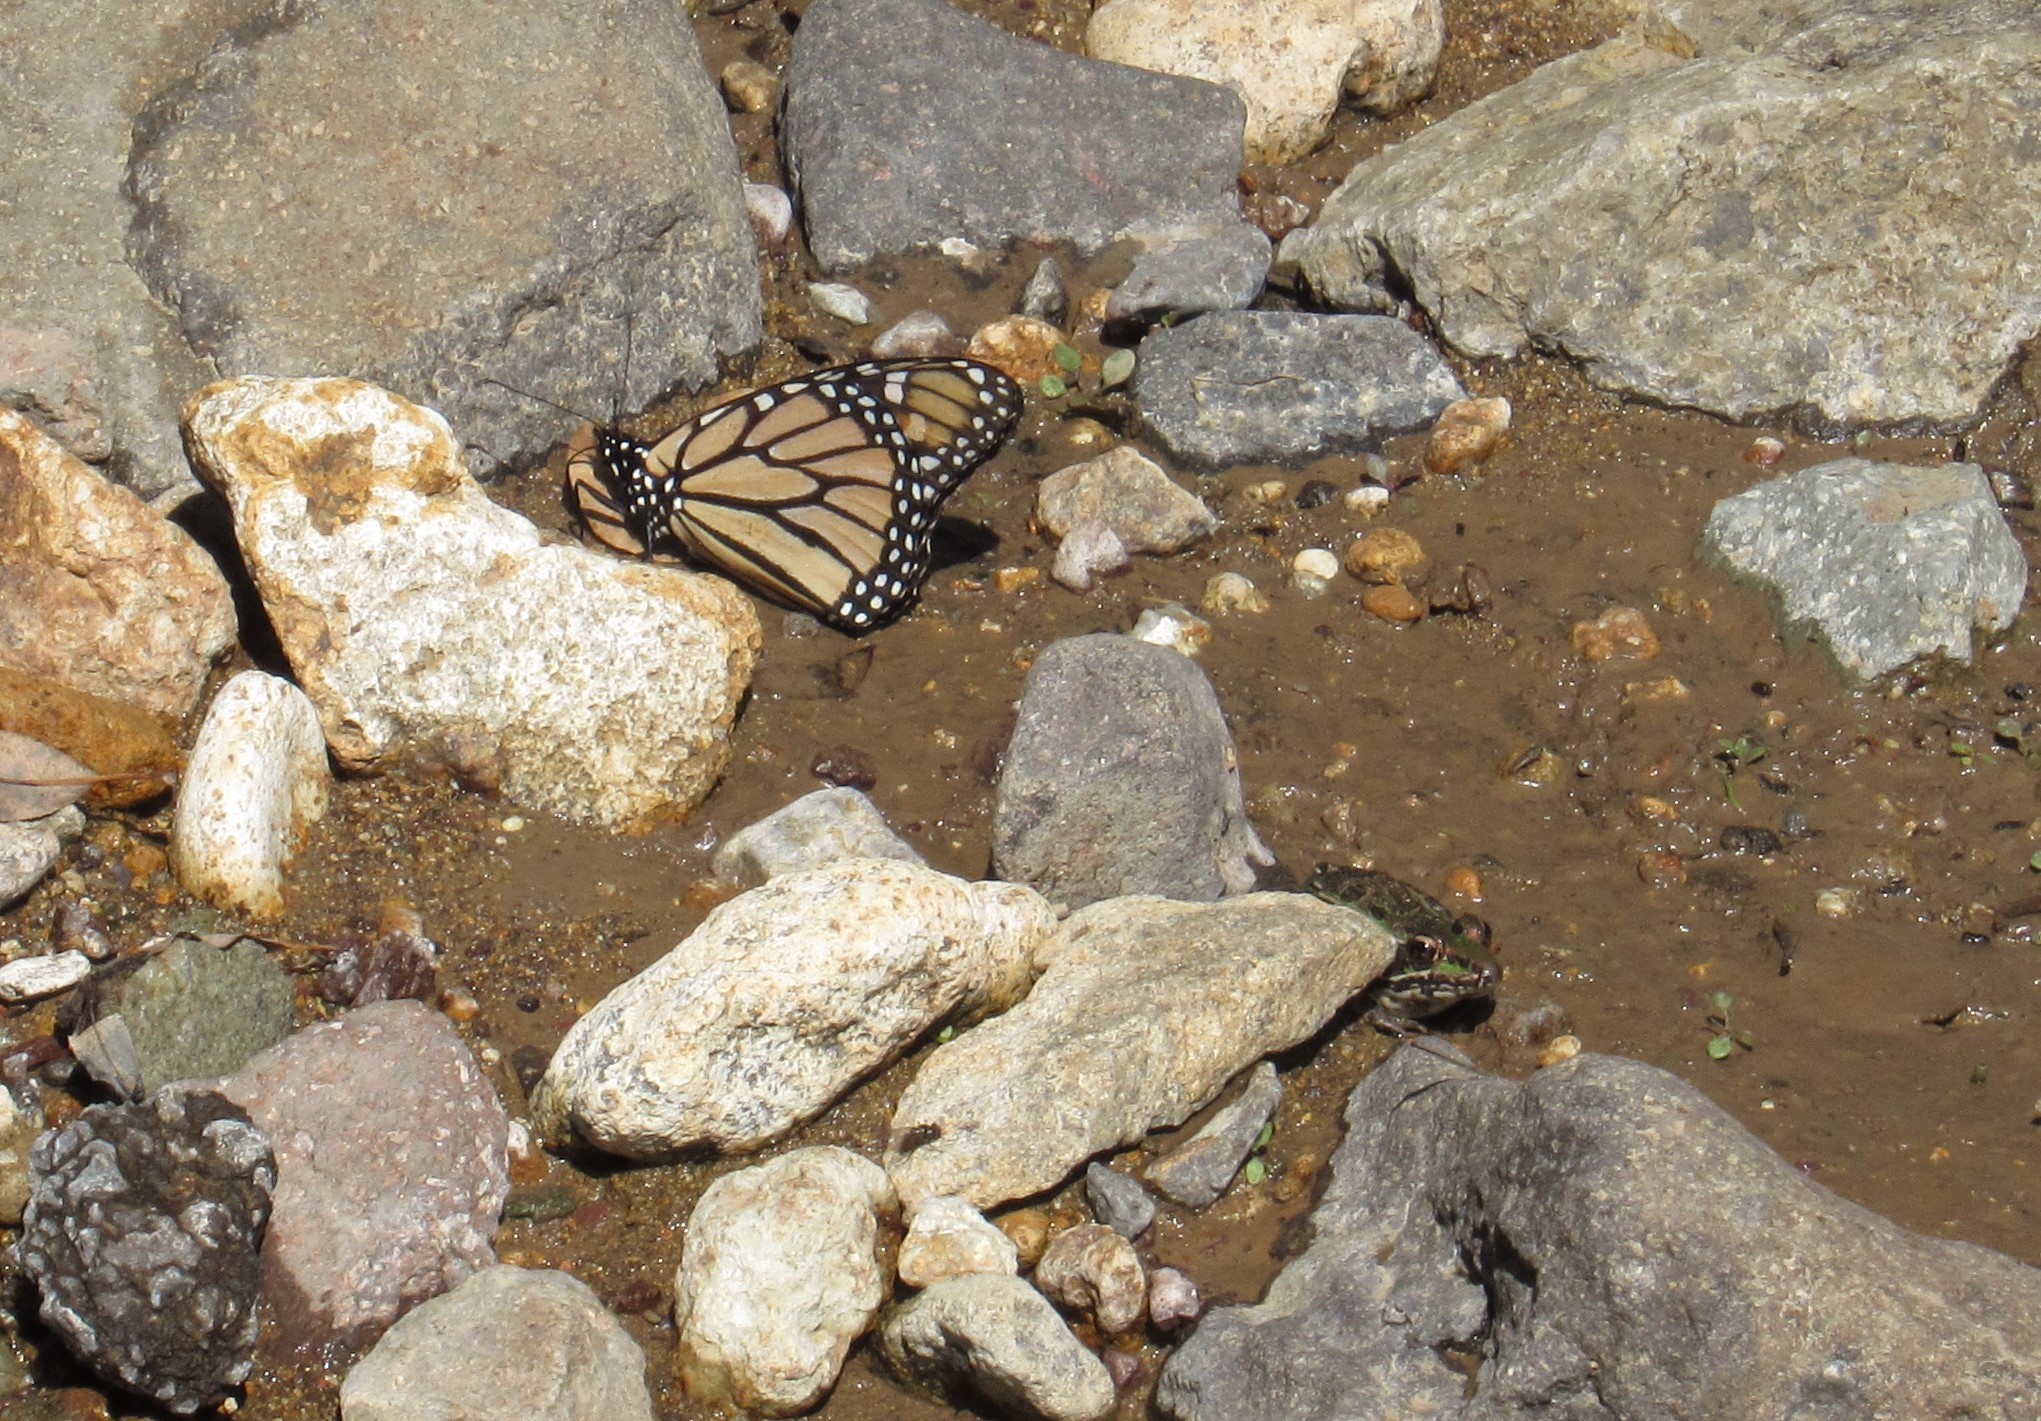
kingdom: Animalia
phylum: Chordata
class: Amphibia
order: Anura
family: Ranidae
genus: Lithobates
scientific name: Lithobates neovolcanicus
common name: Transverse volcanic leopard frog
